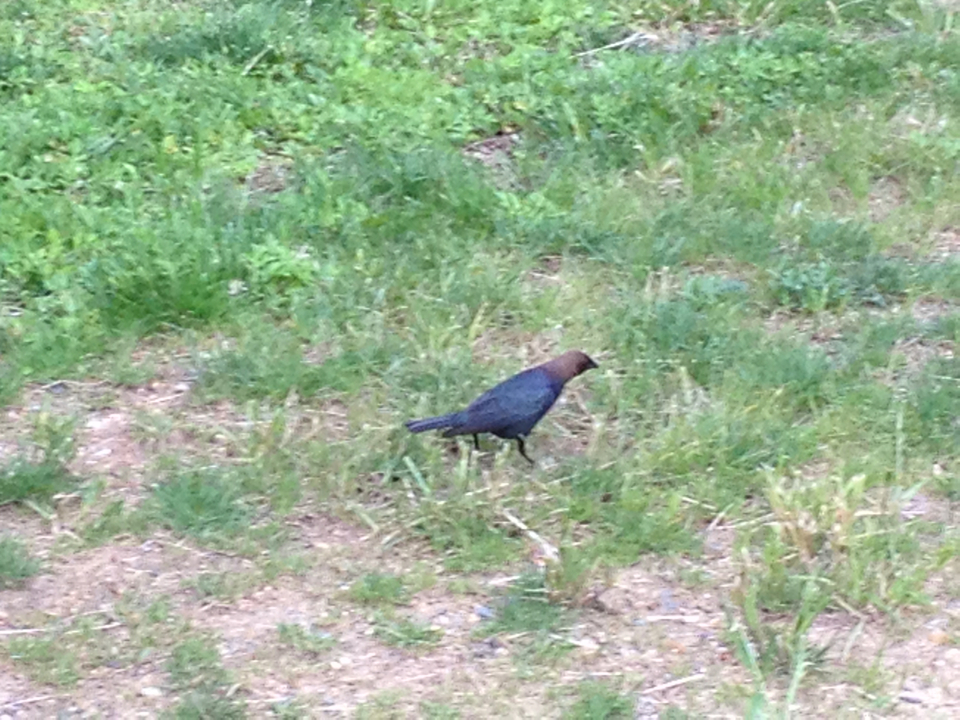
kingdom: Animalia
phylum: Chordata
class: Aves
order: Passeriformes
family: Icteridae
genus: Molothrus
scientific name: Molothrus ater
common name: Brown-headed cowbird
